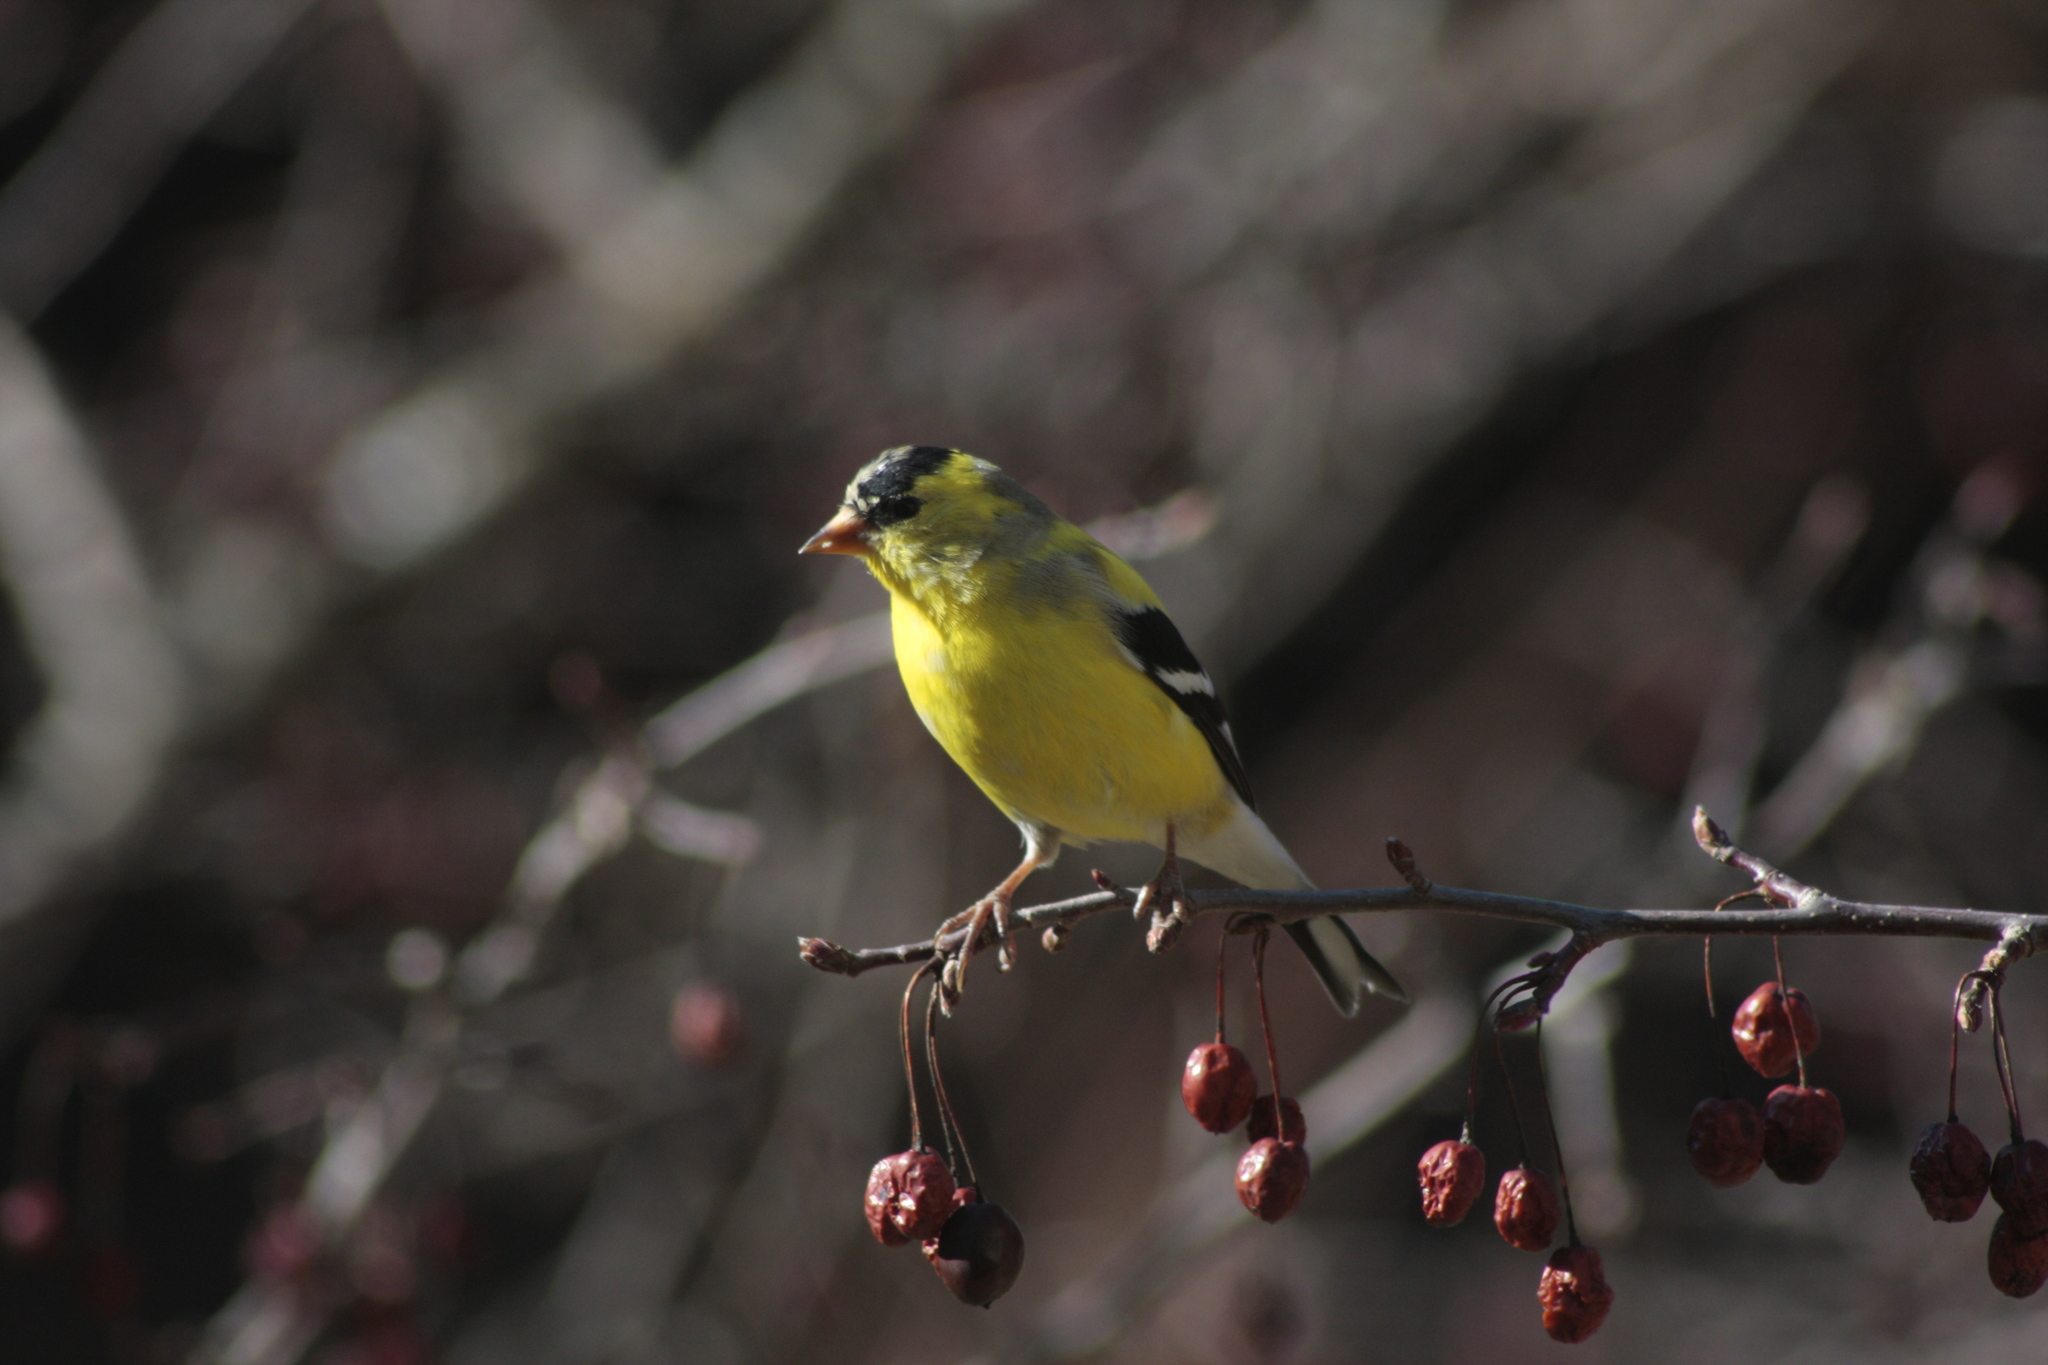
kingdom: Animalia
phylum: Chordata
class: Aves
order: Passeriformes
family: Fringillidae
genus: Spinus
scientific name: Spinus tristis
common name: American goldfinch
